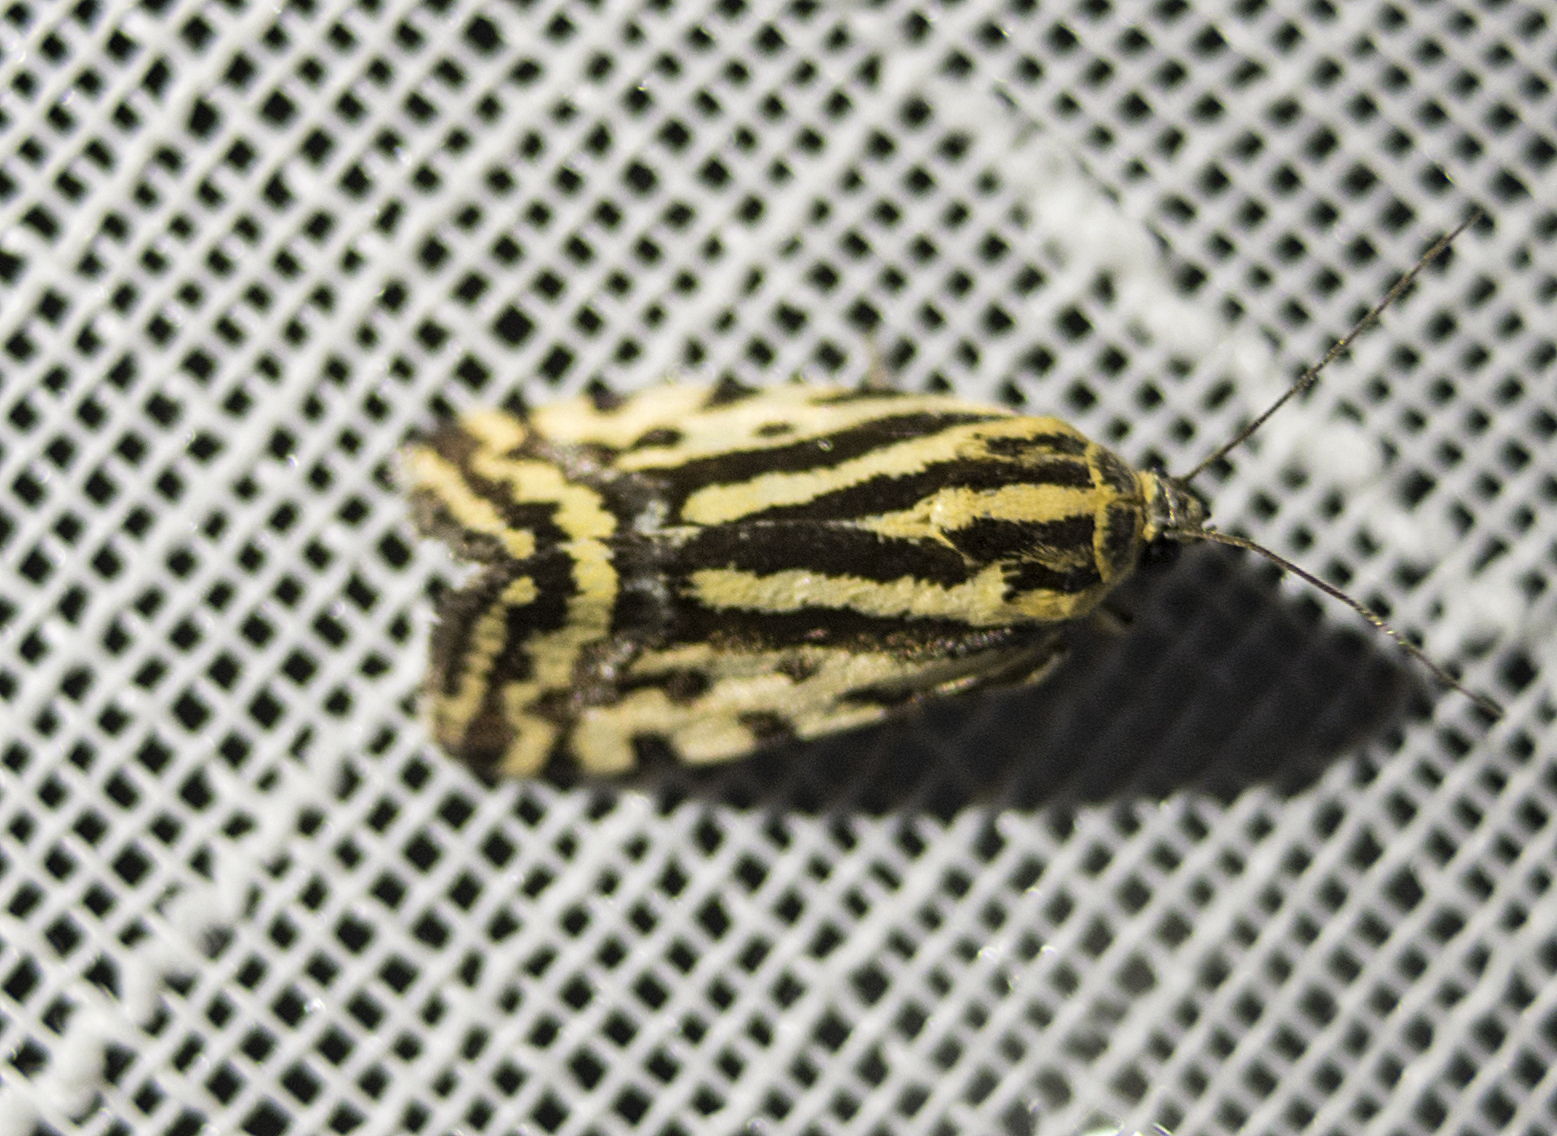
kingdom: Animalia
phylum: Arthropoda
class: Insecta
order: Lepidoptera
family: Noctuidae
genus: Acontia
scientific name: Acontia trabealis
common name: Spotted sulphur
